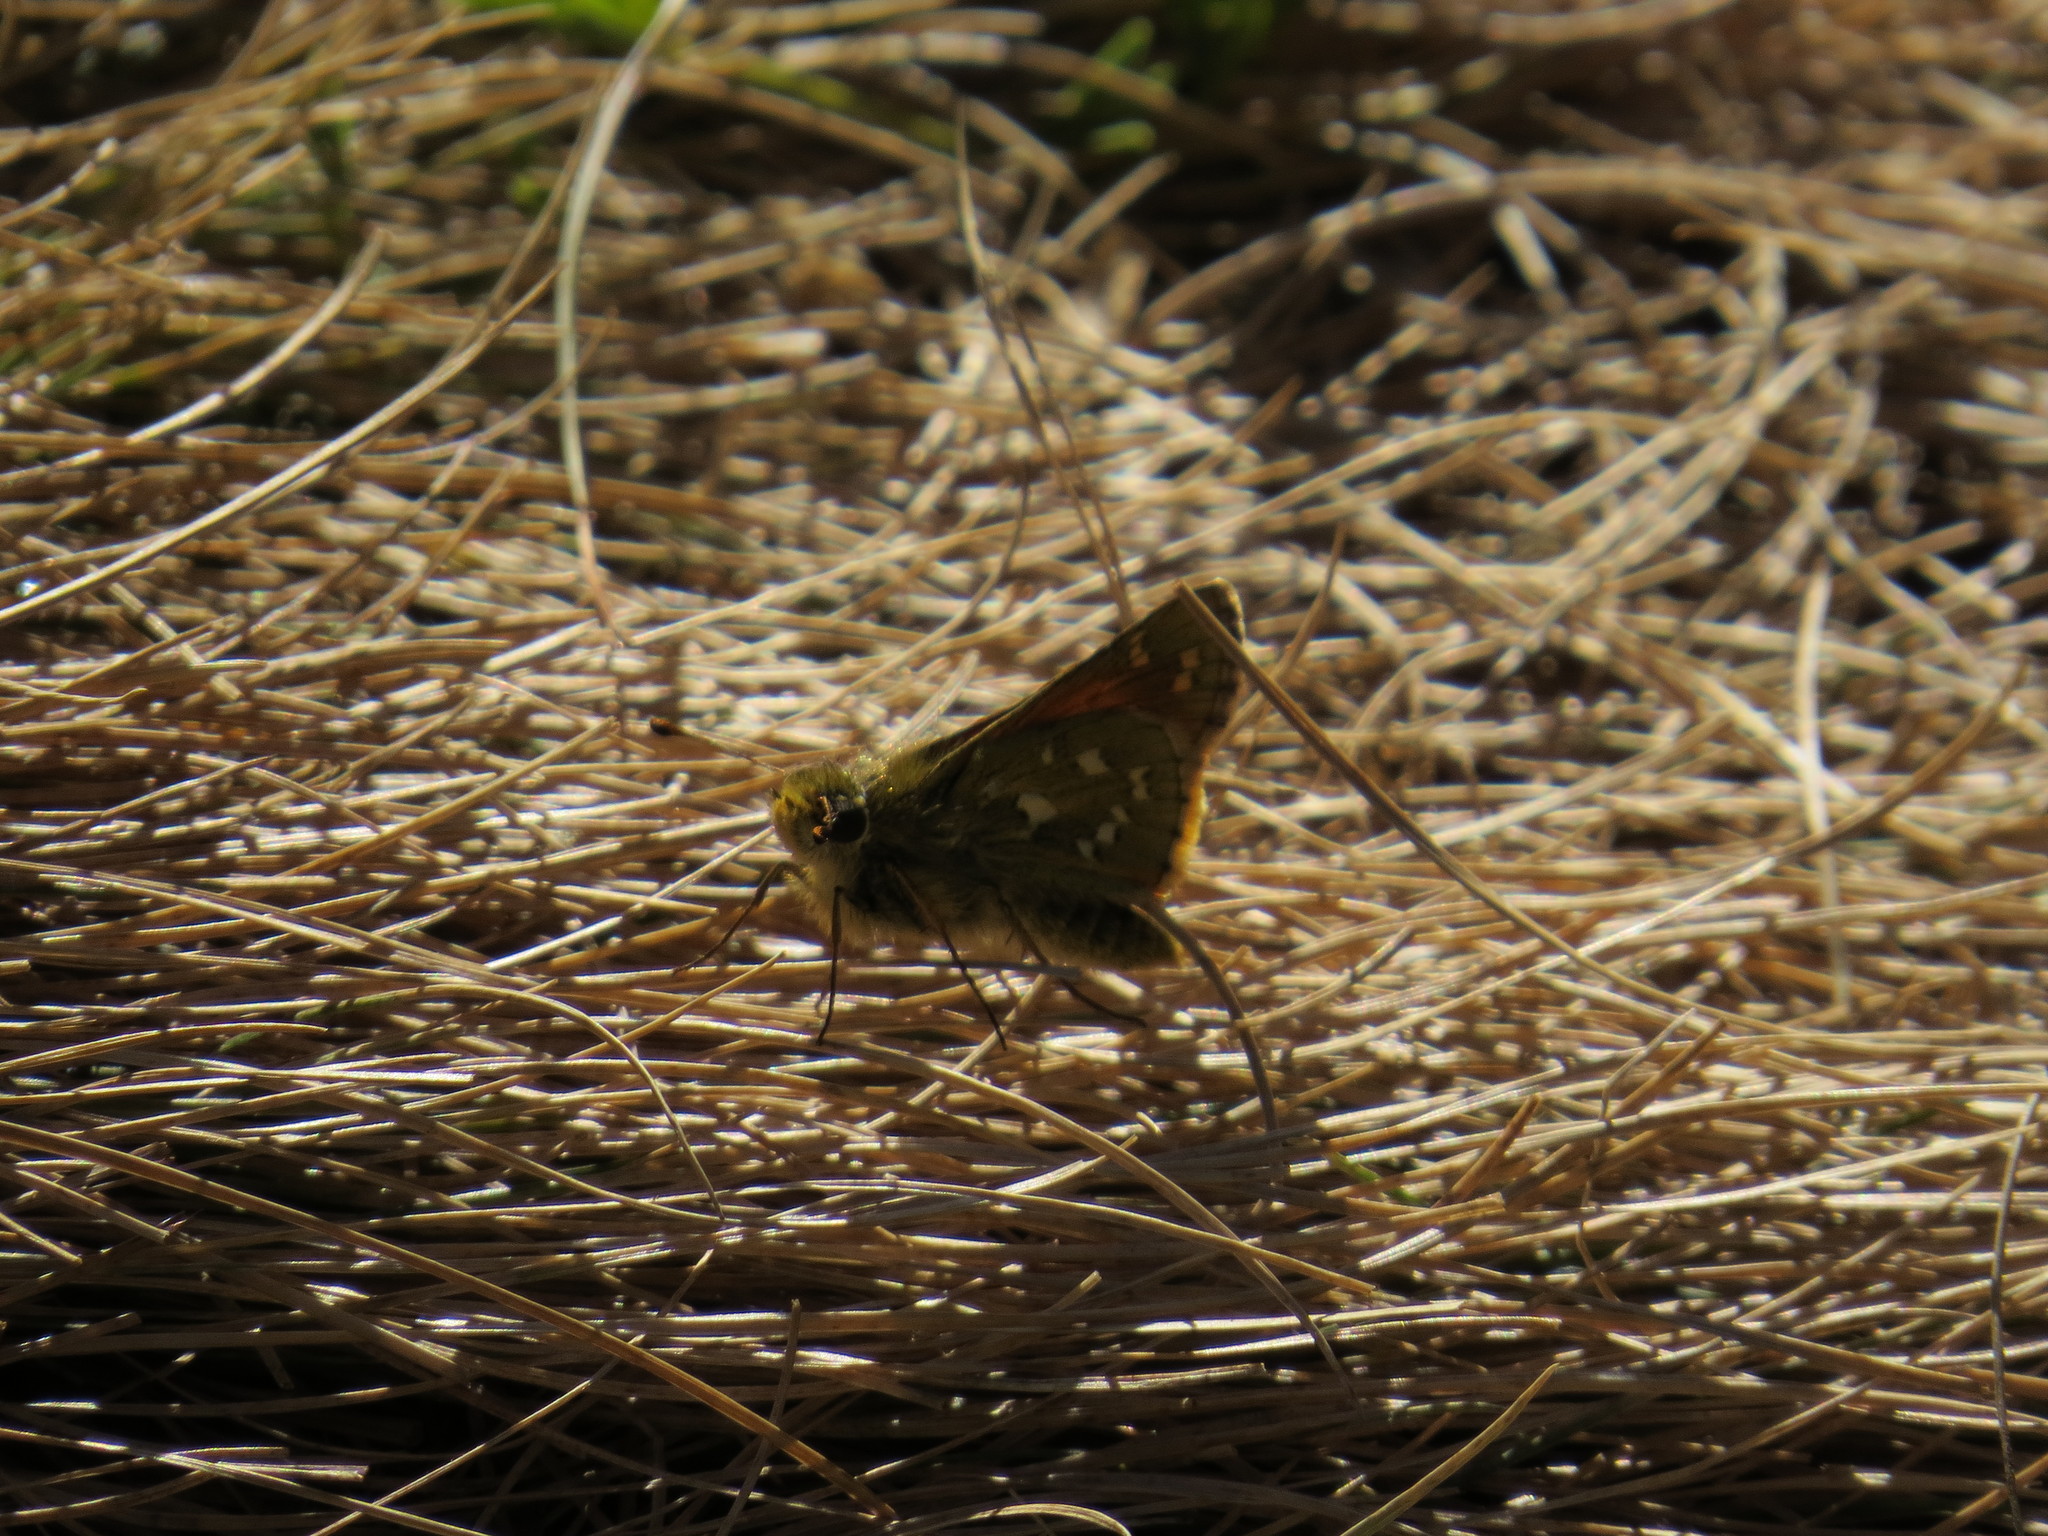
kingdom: Animalia
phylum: Arthropoda
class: Insecta
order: Lepidoptera
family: Hesperiidae
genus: Hesperia
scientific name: Hesperia comma
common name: Common branded skipper
